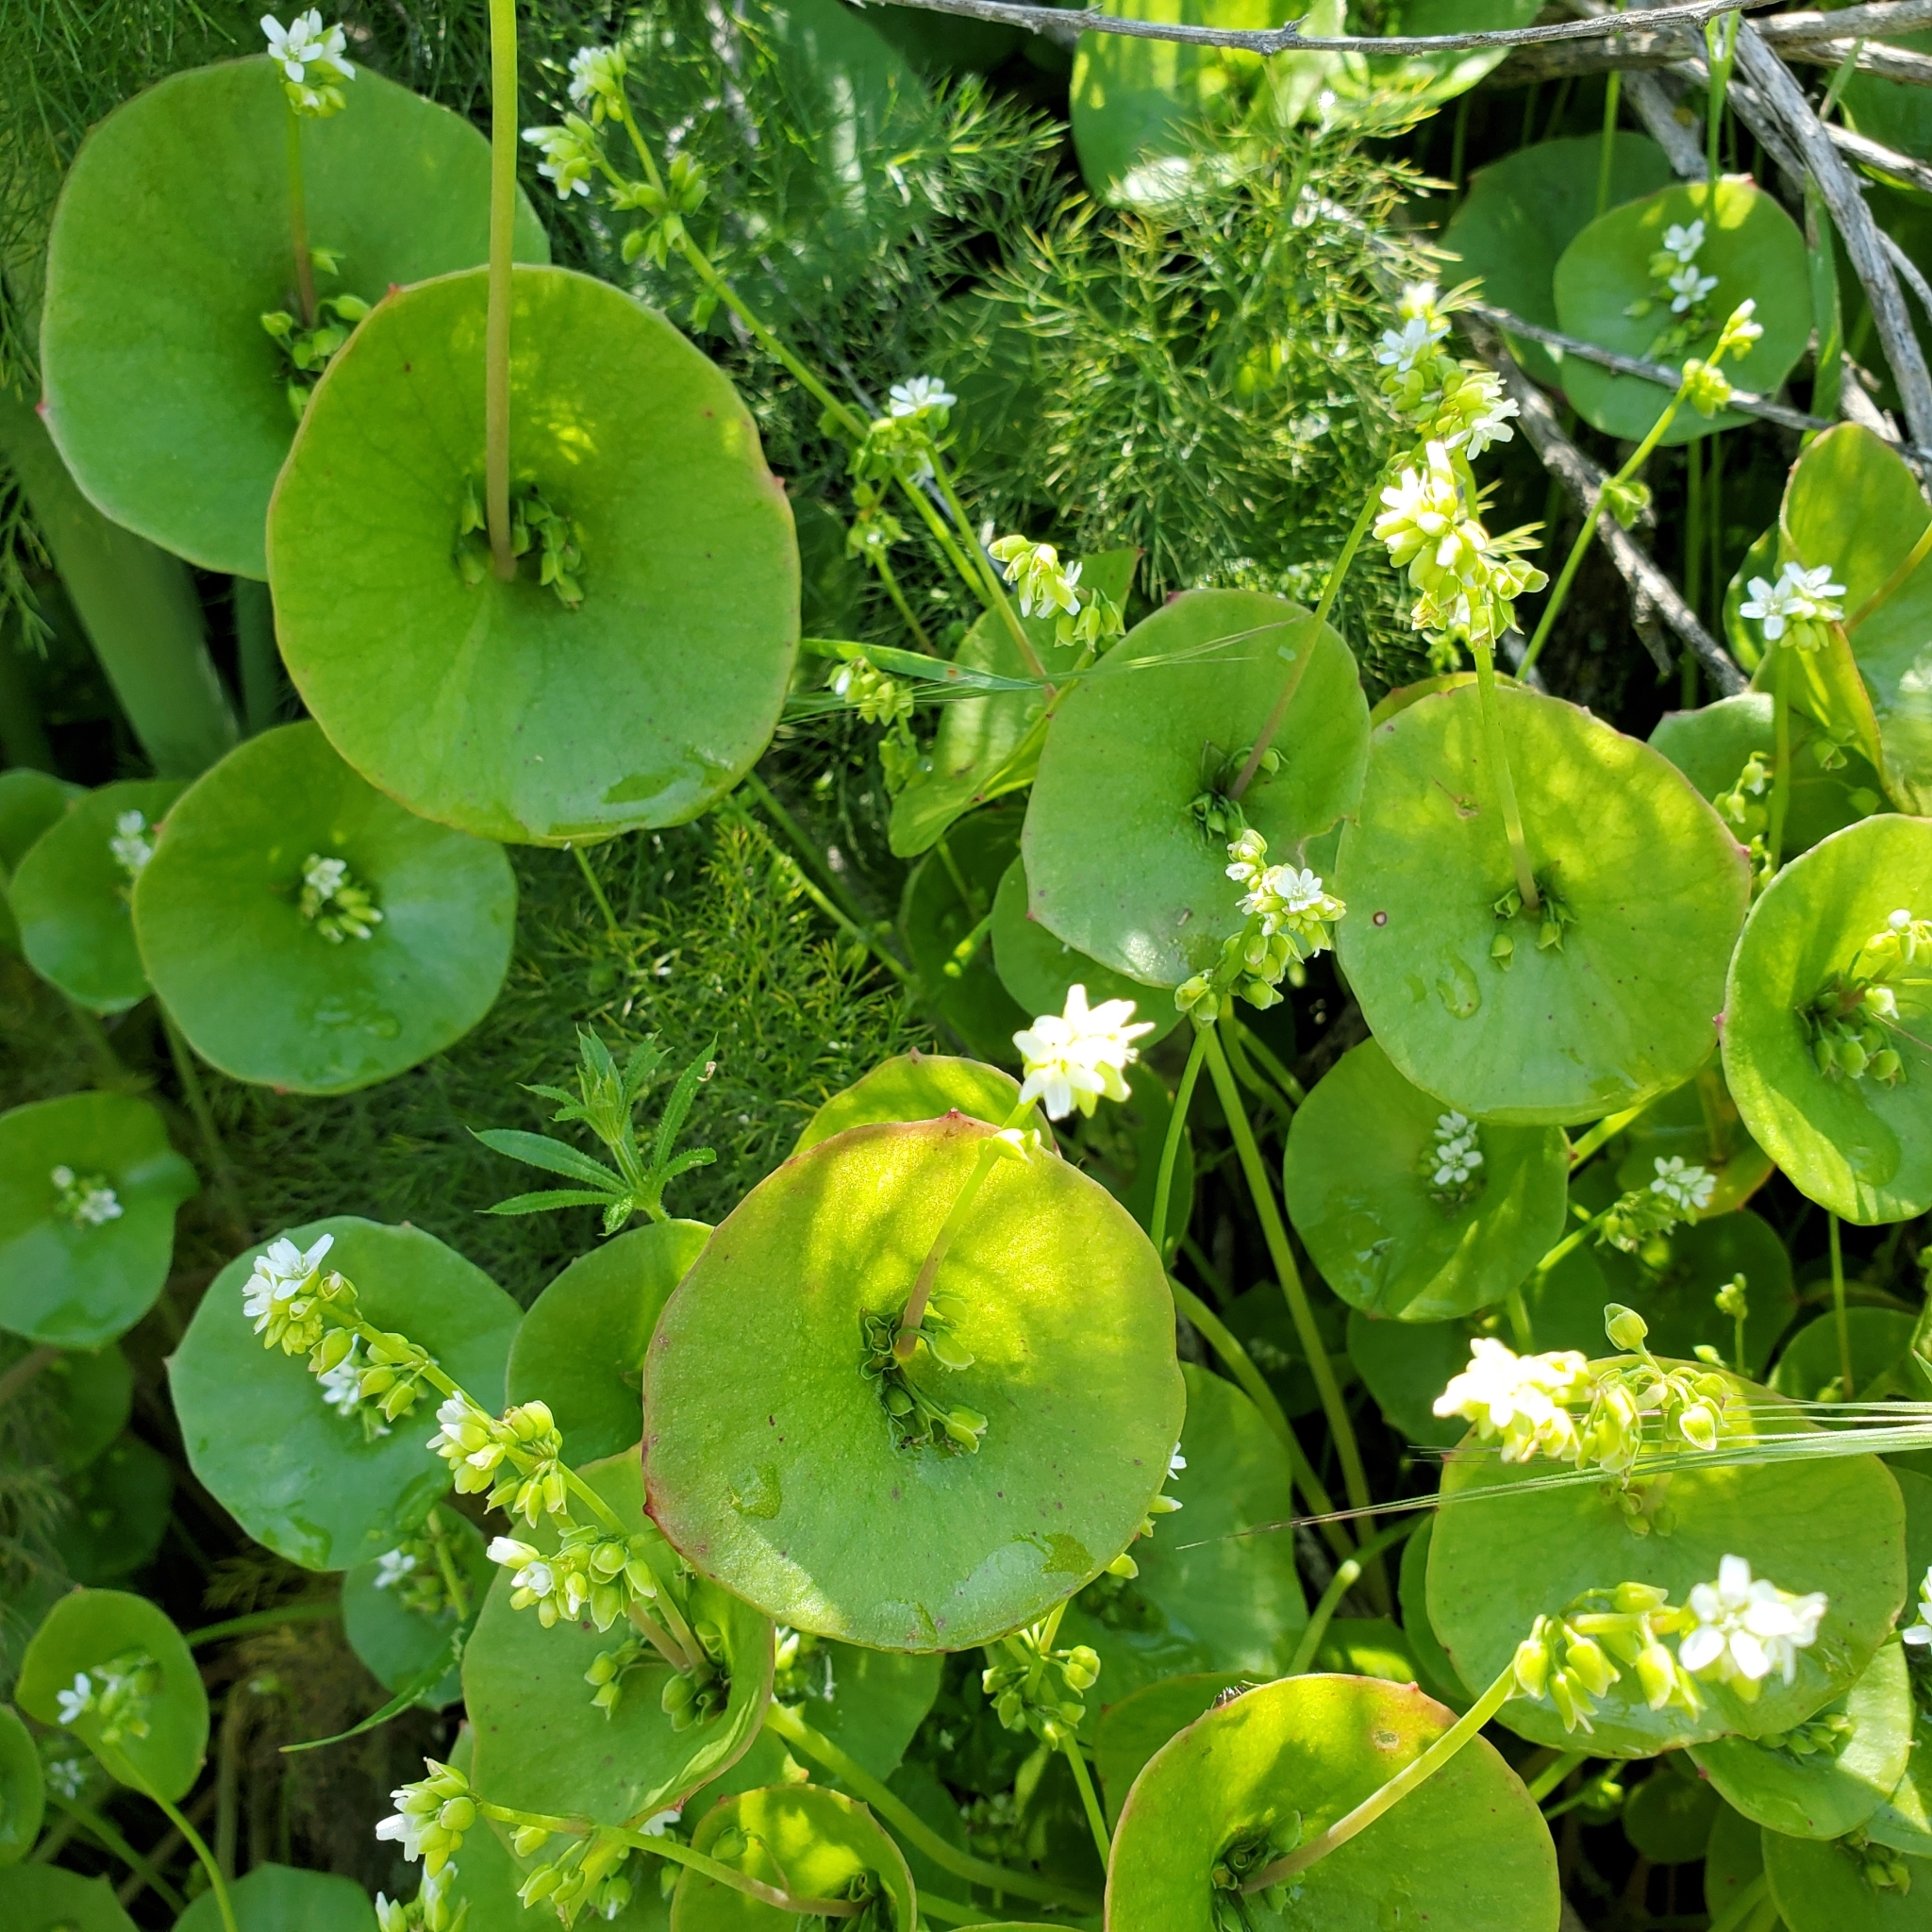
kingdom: Plantae
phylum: Tracheophyta
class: Magnoliopsida
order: Caryophyllales
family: Montiaceae
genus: Claytonia
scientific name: Claytonia perfoliata
